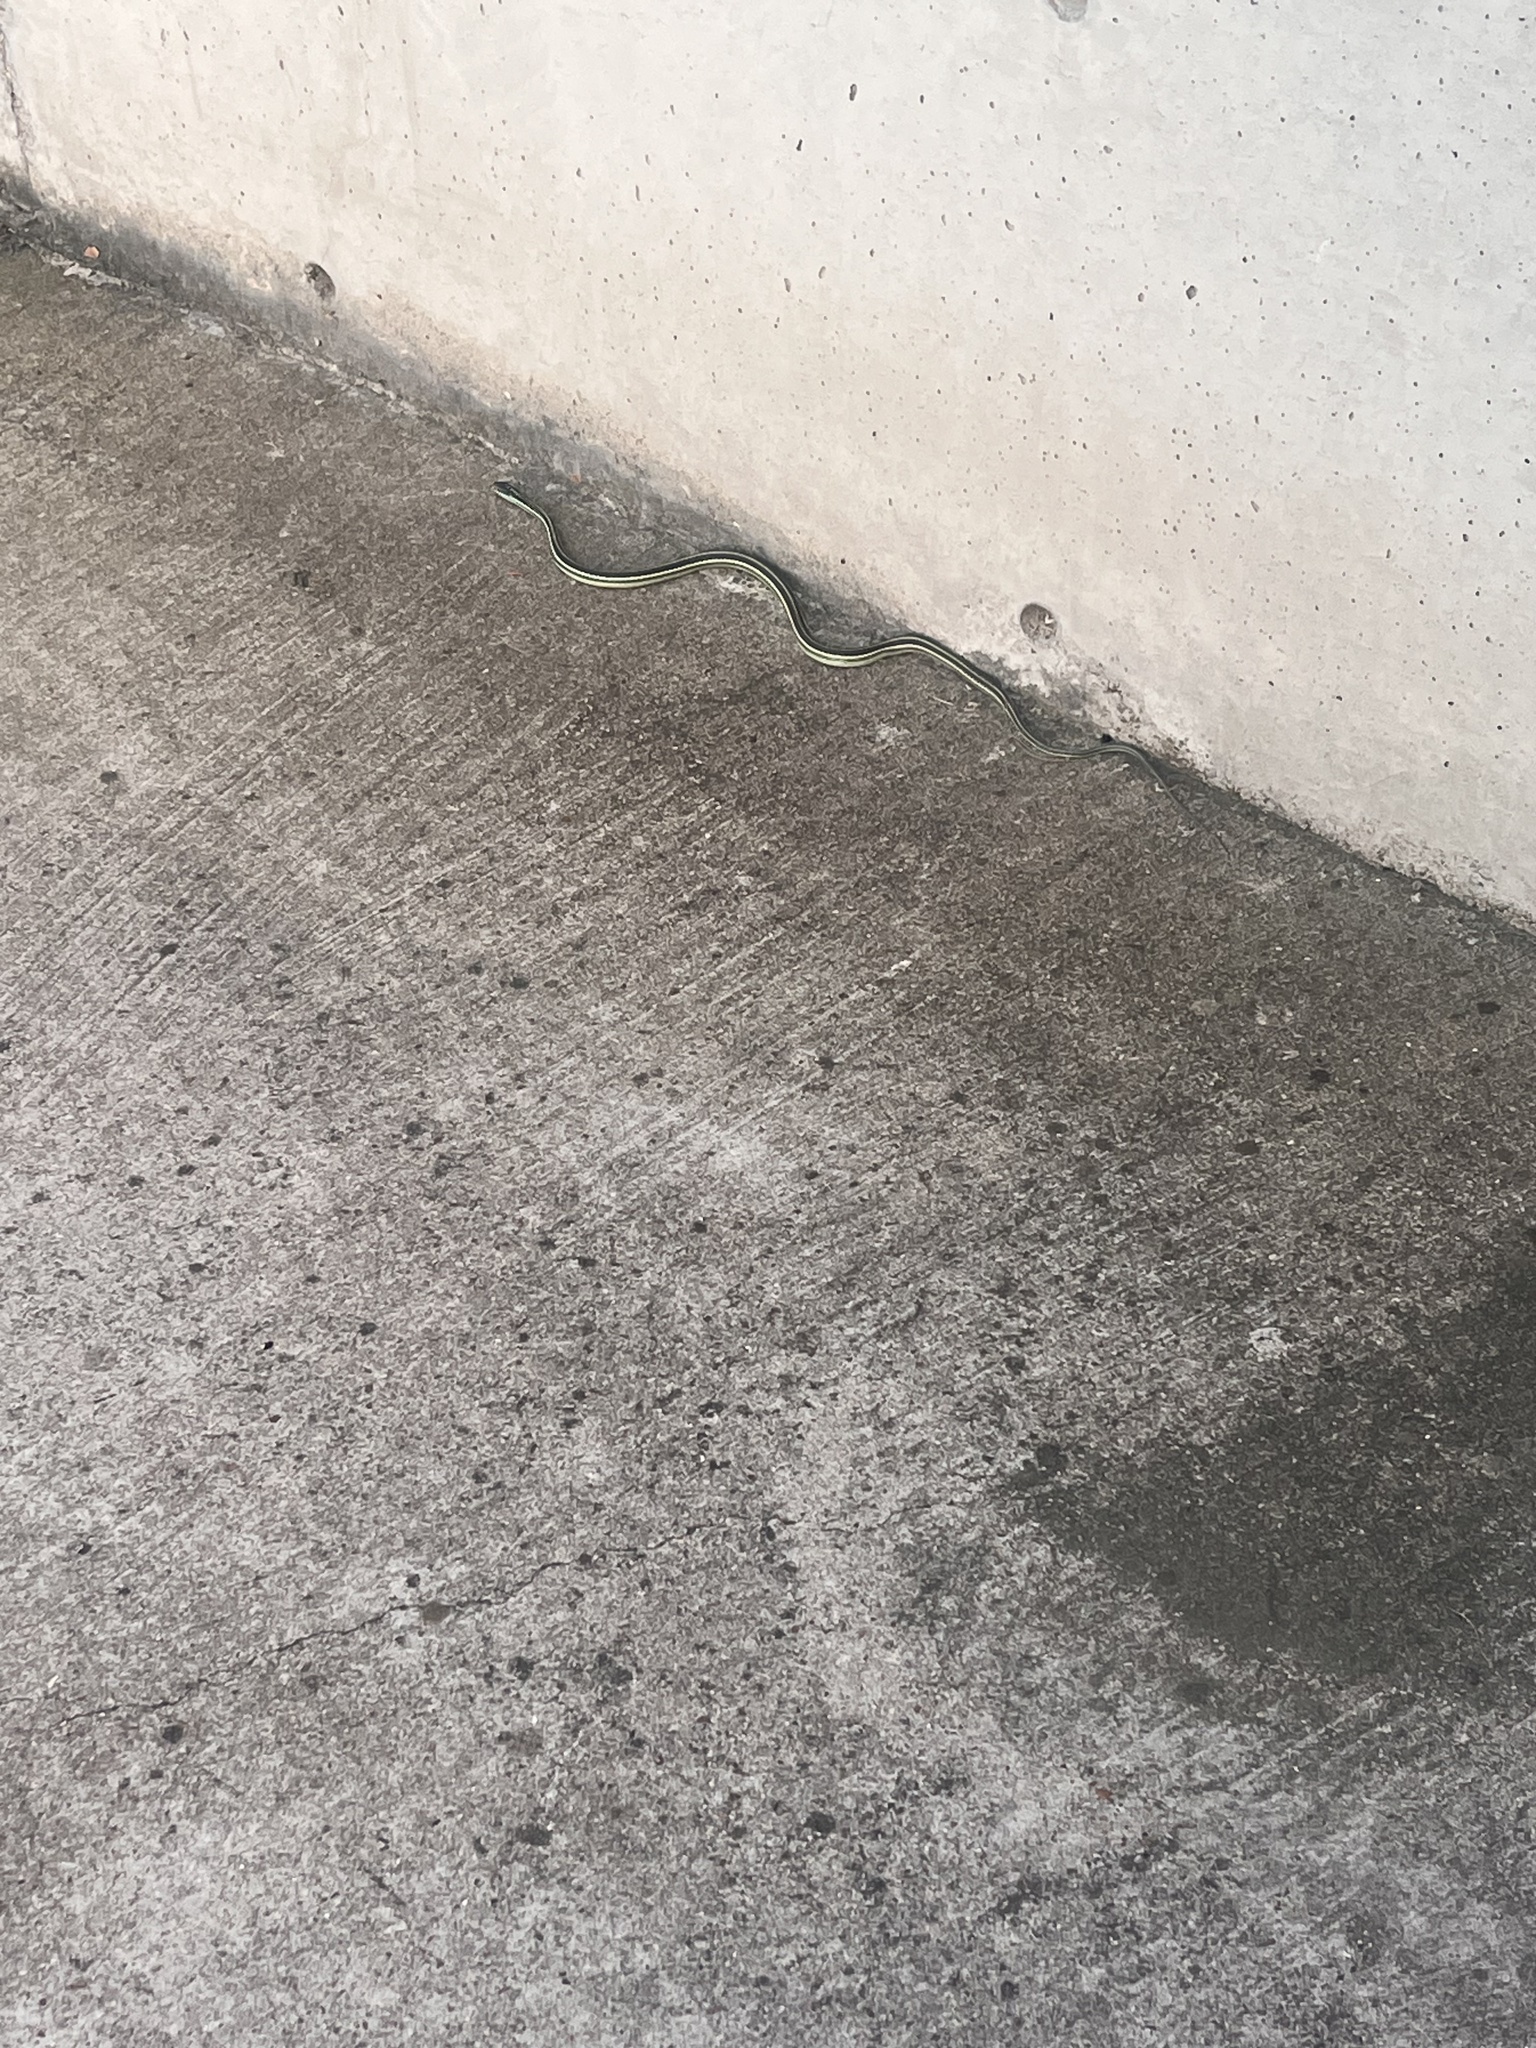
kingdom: Animalia
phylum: Chordata
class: Squamata
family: Colubridae
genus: Thamnophis
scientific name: Thamnophis proximus
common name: Western ribbon snake
